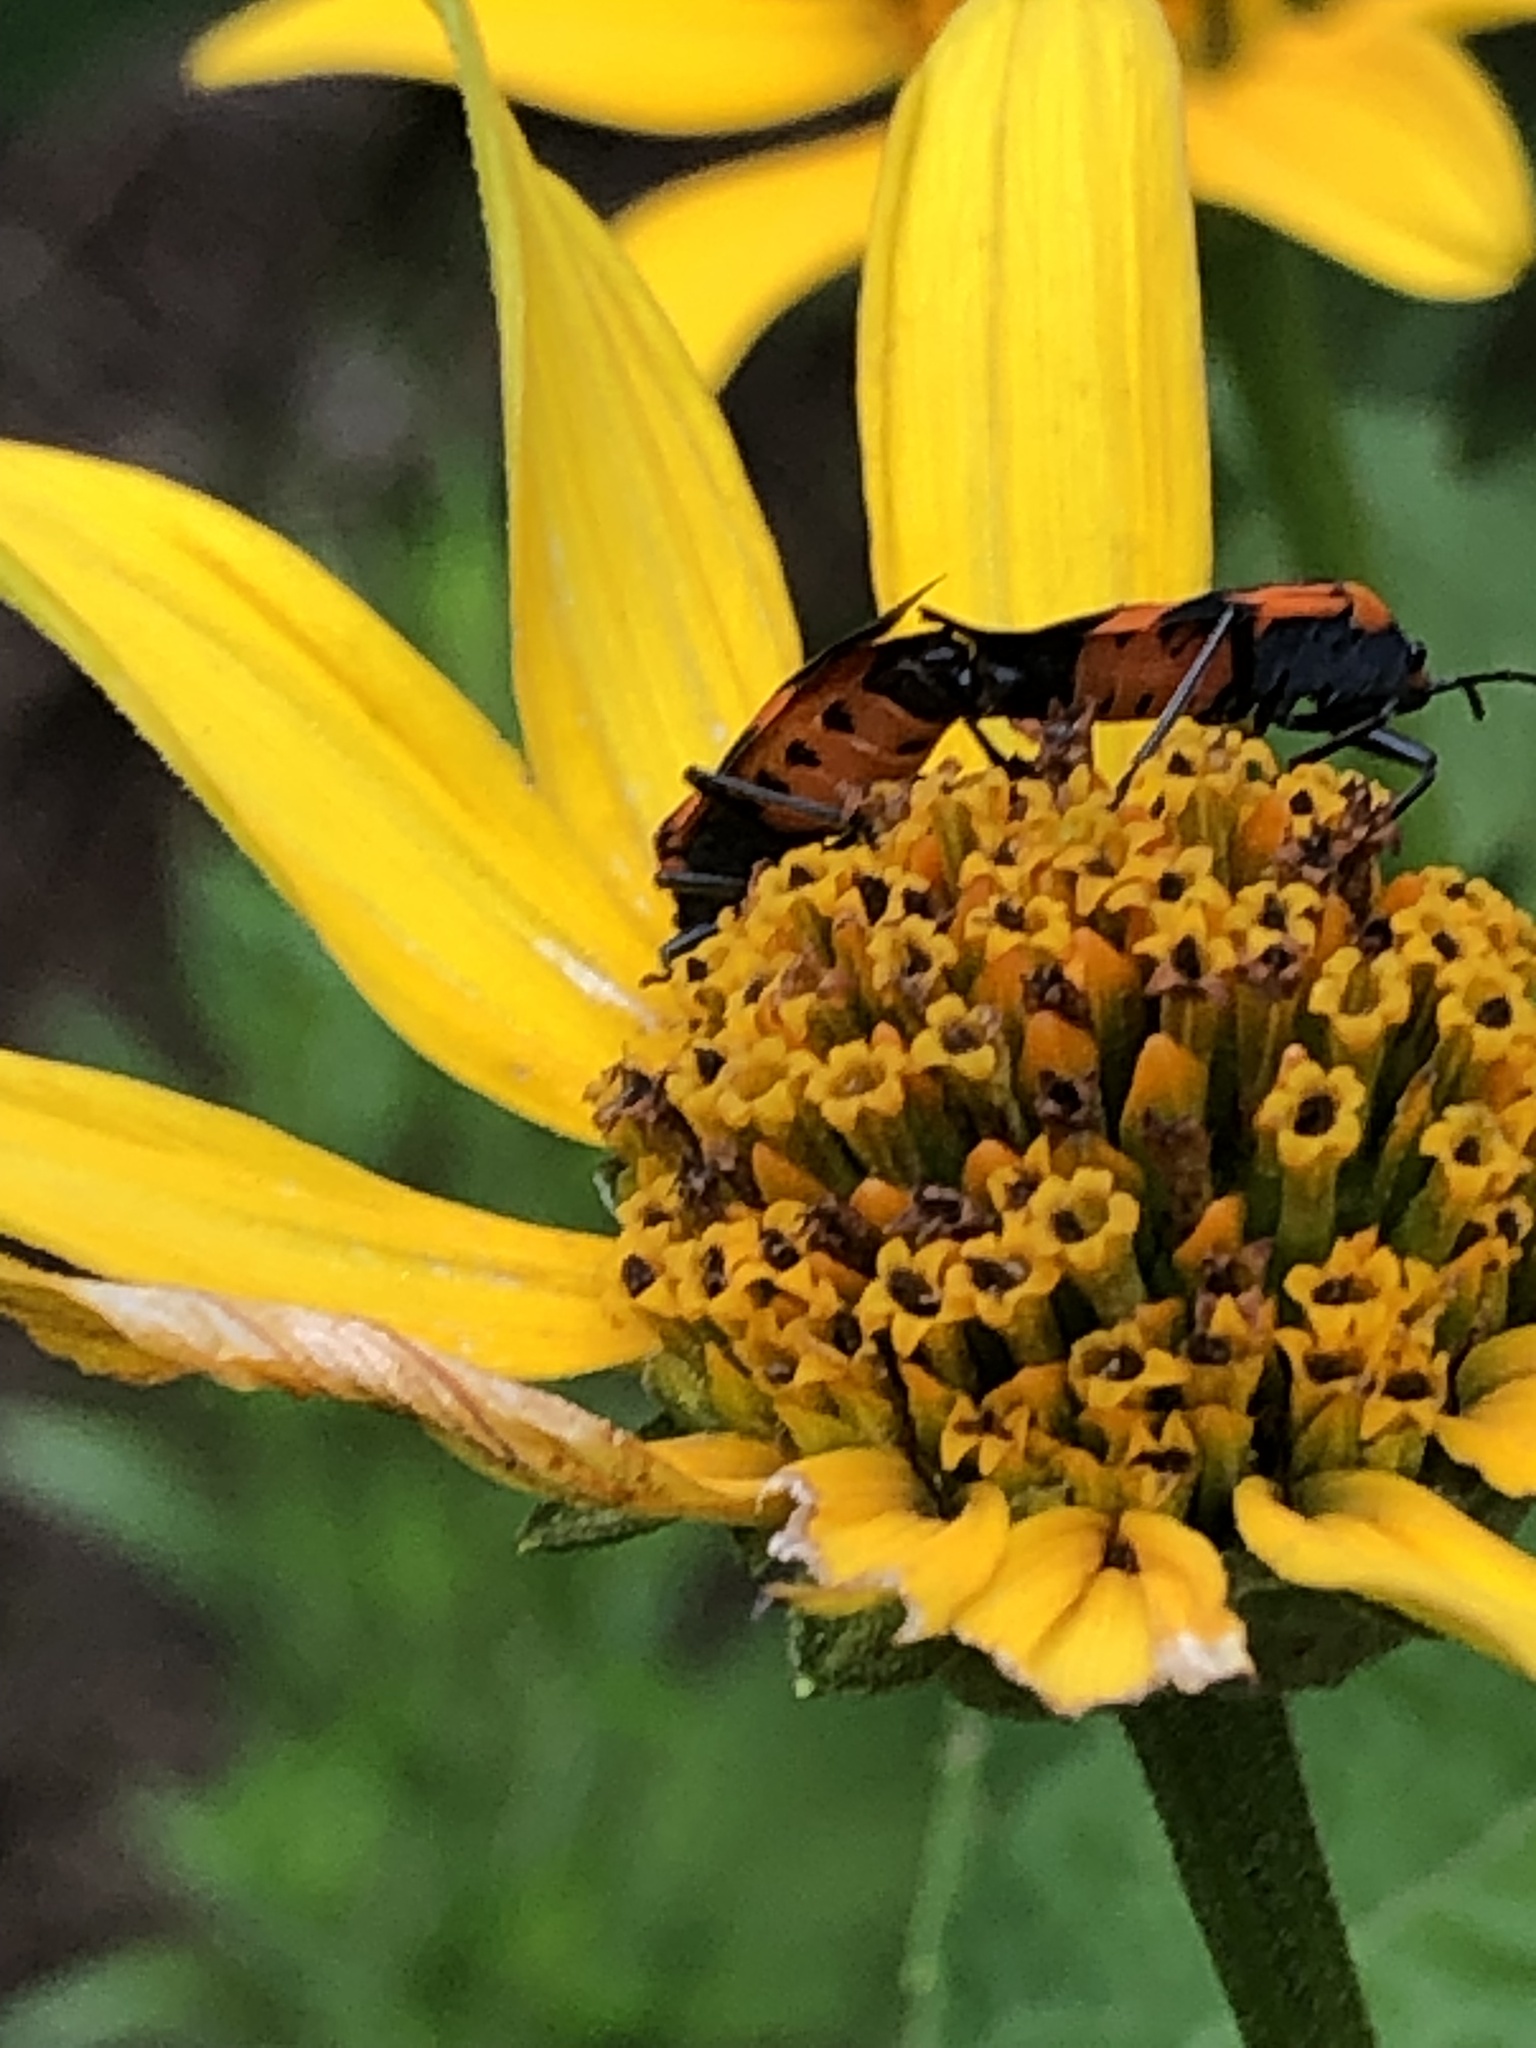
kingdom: Animalia
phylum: Arthropoda
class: Insecta
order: Hemiptera
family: Lygaeidae
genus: Lygaeus
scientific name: Lygaeus turcicus
